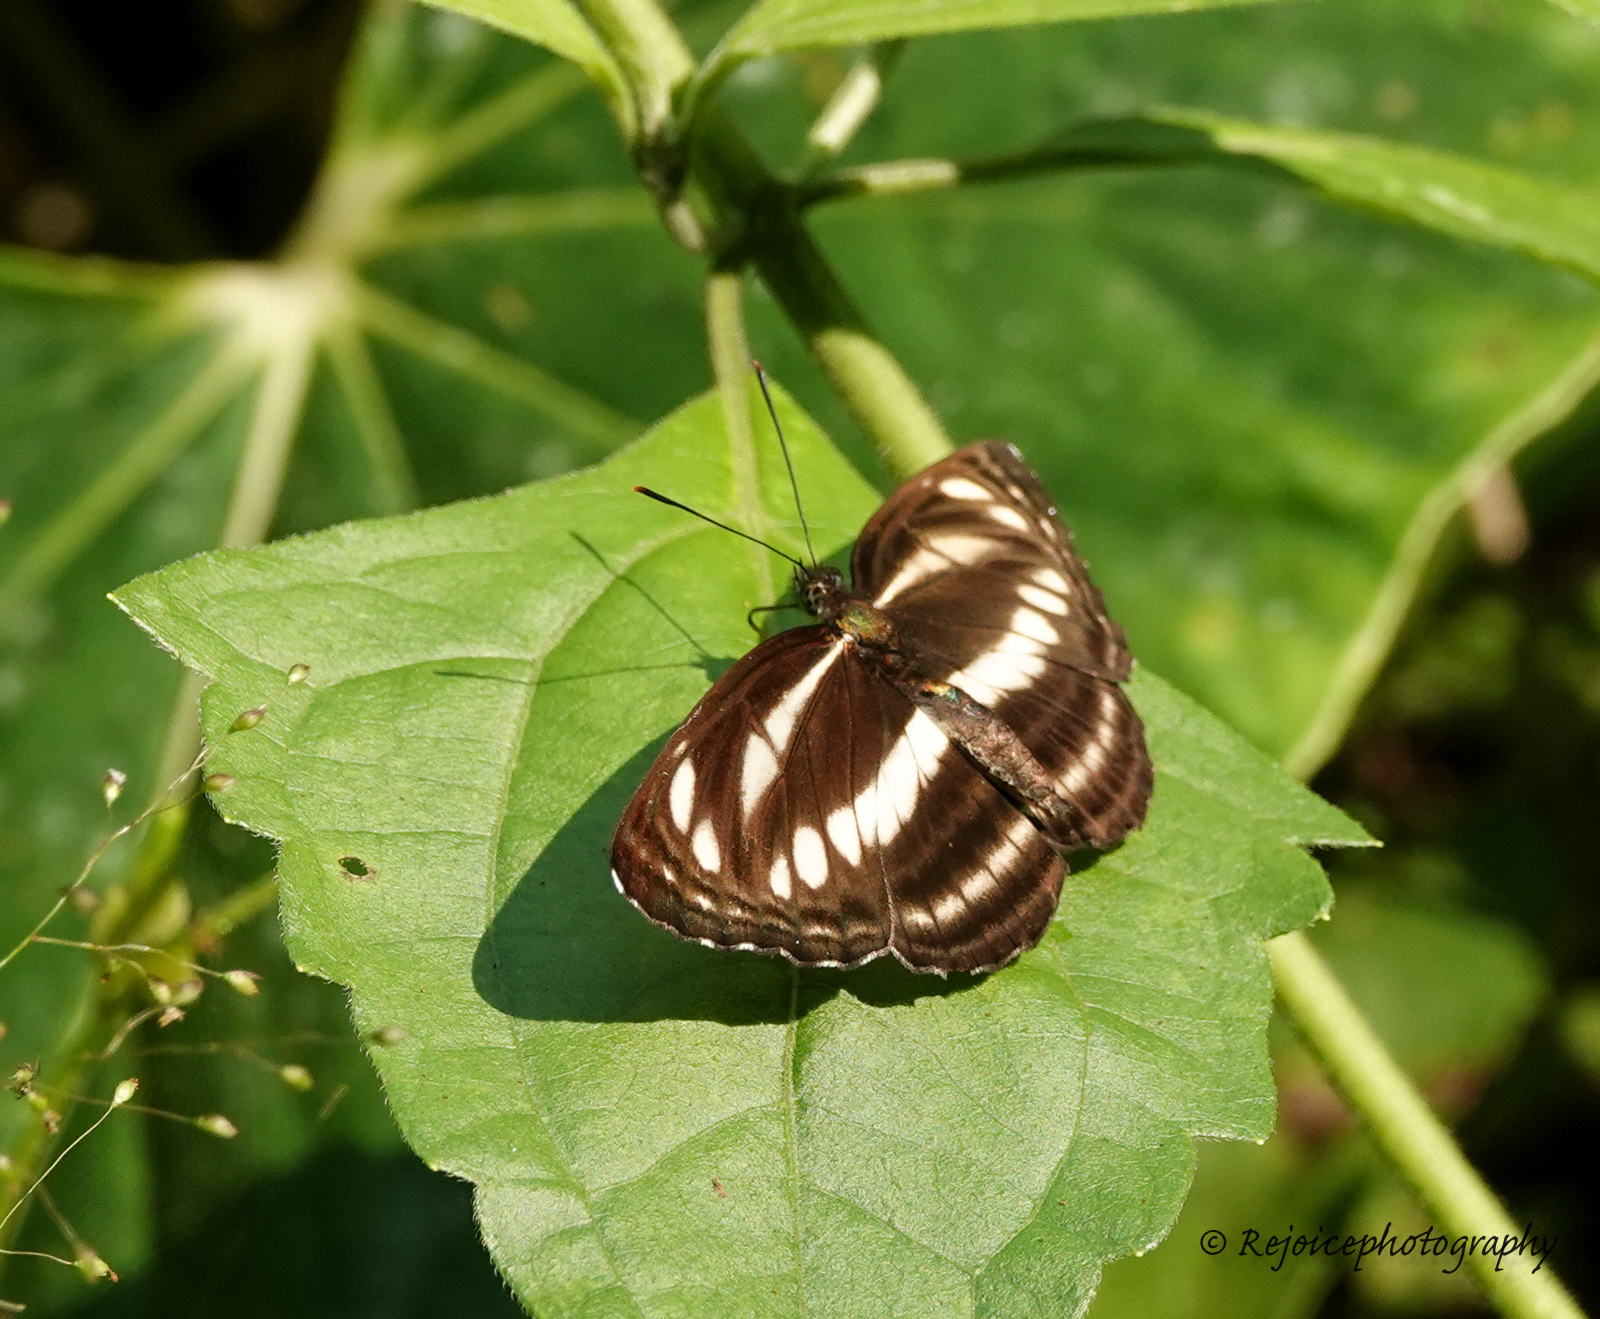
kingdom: Animalia
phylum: Arthropoda
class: Insecta
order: Lepidoptera
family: Nymphalidae
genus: Neptis
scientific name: Neptis hylas
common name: Common sailer
